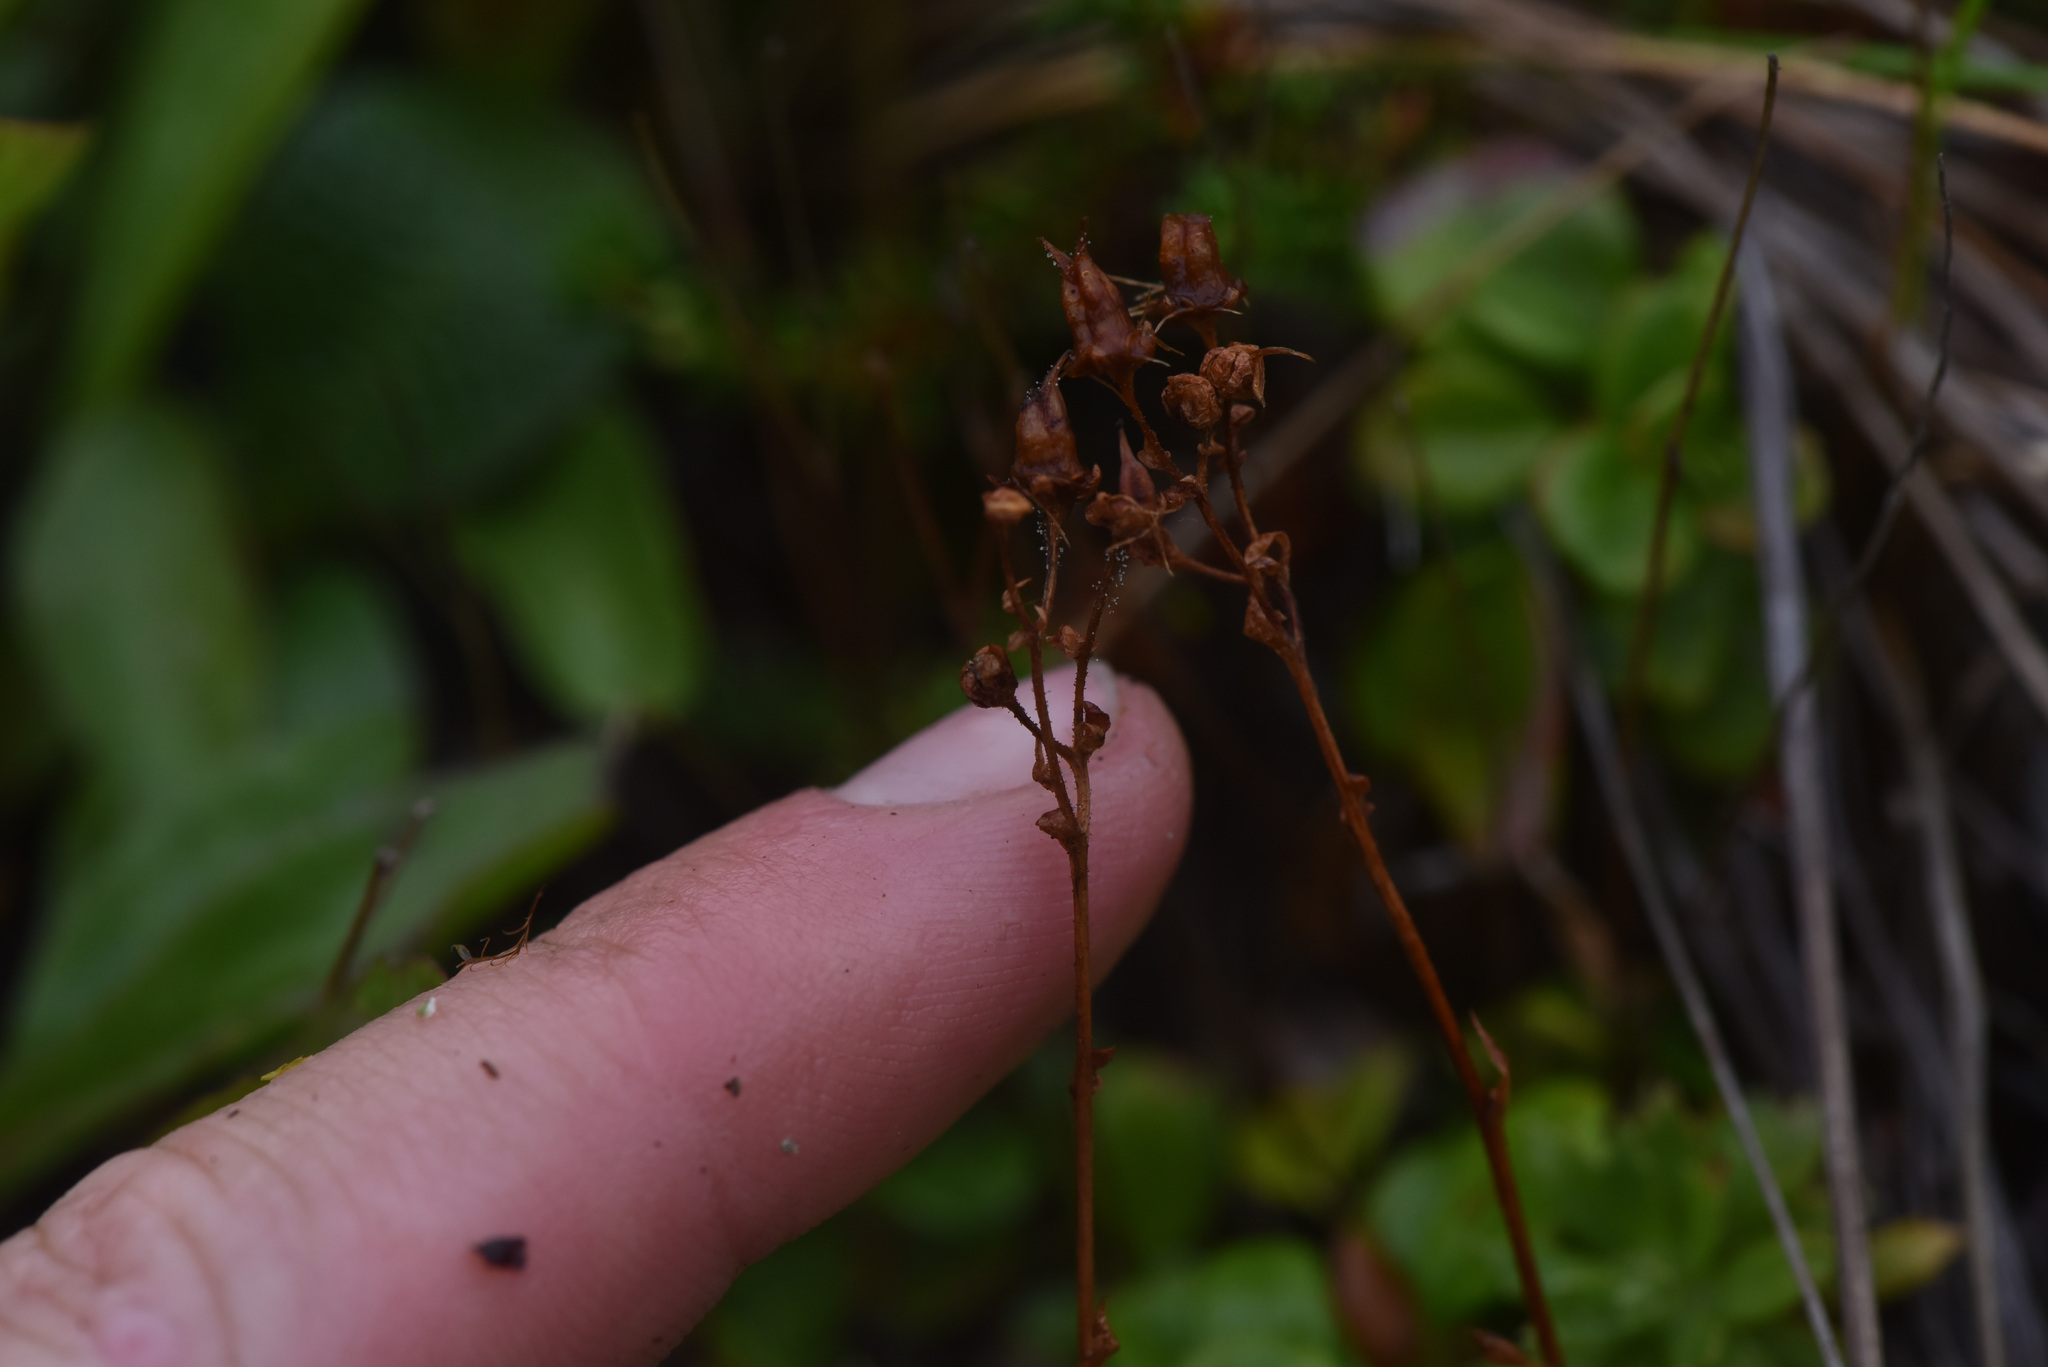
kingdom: Plantae
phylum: Tracheophyta
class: Magnoliopsida
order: Saxifragales
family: Saxifragaceae
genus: Saxifraga
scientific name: Saxifraga tricuspidata
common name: Prickly saxifrage
